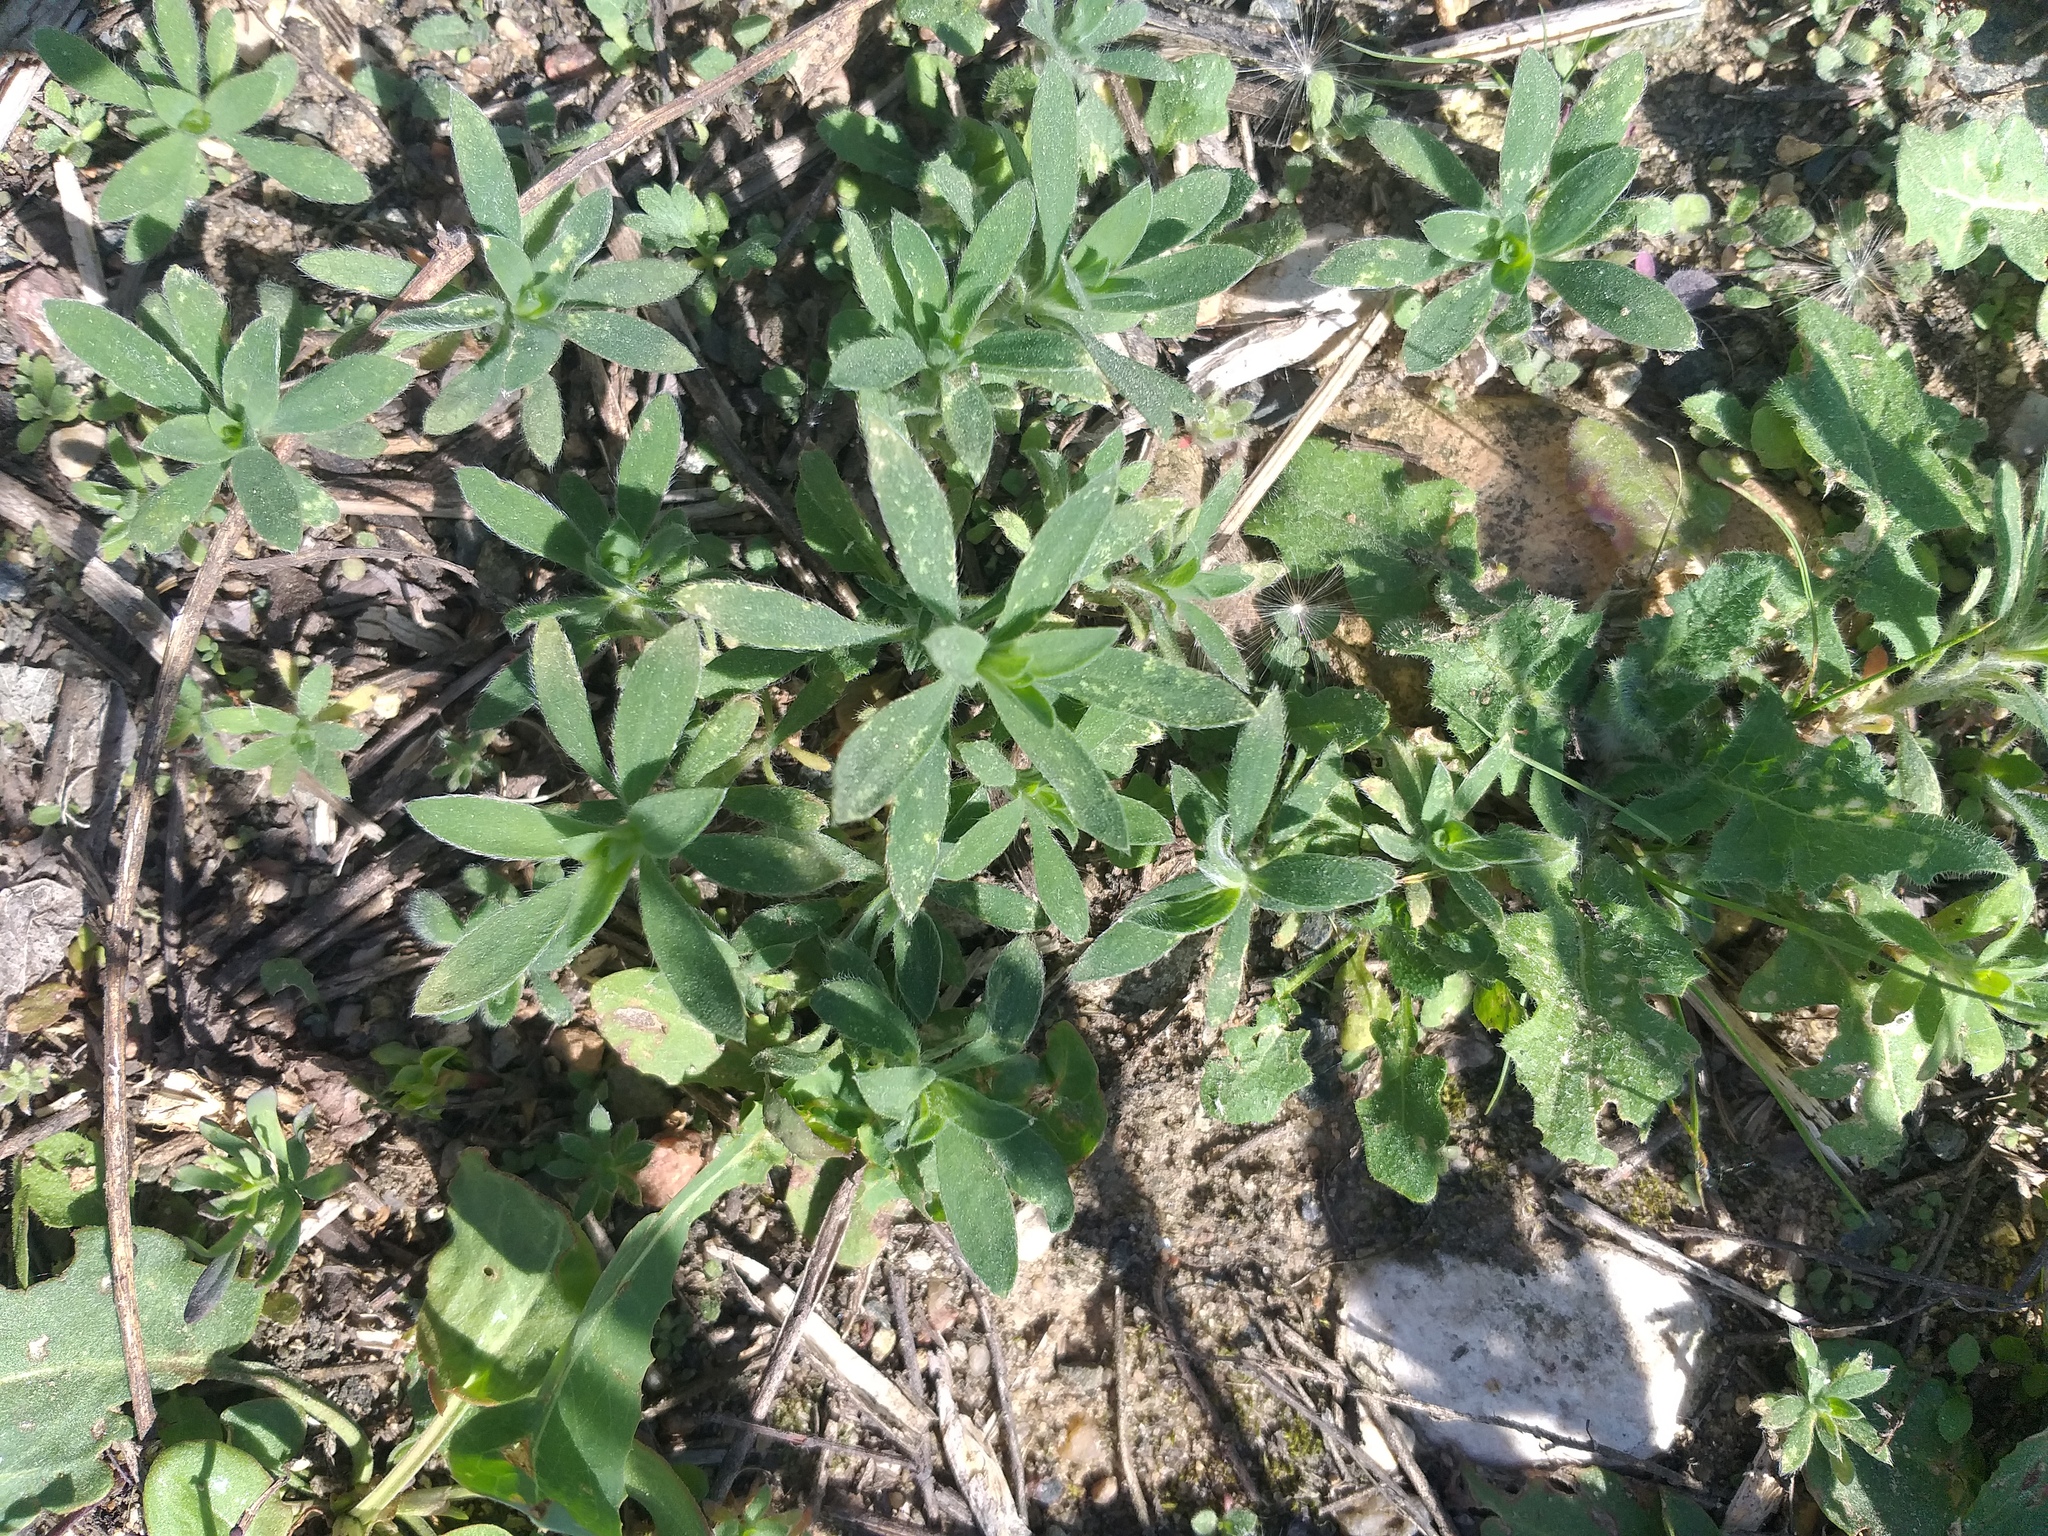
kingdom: Plantae
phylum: Tracheophyta
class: Magnoliopsida
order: Caryophyllales
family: Amaranthaceae
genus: Bassia
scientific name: Bassia scoparia
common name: Belvedere
